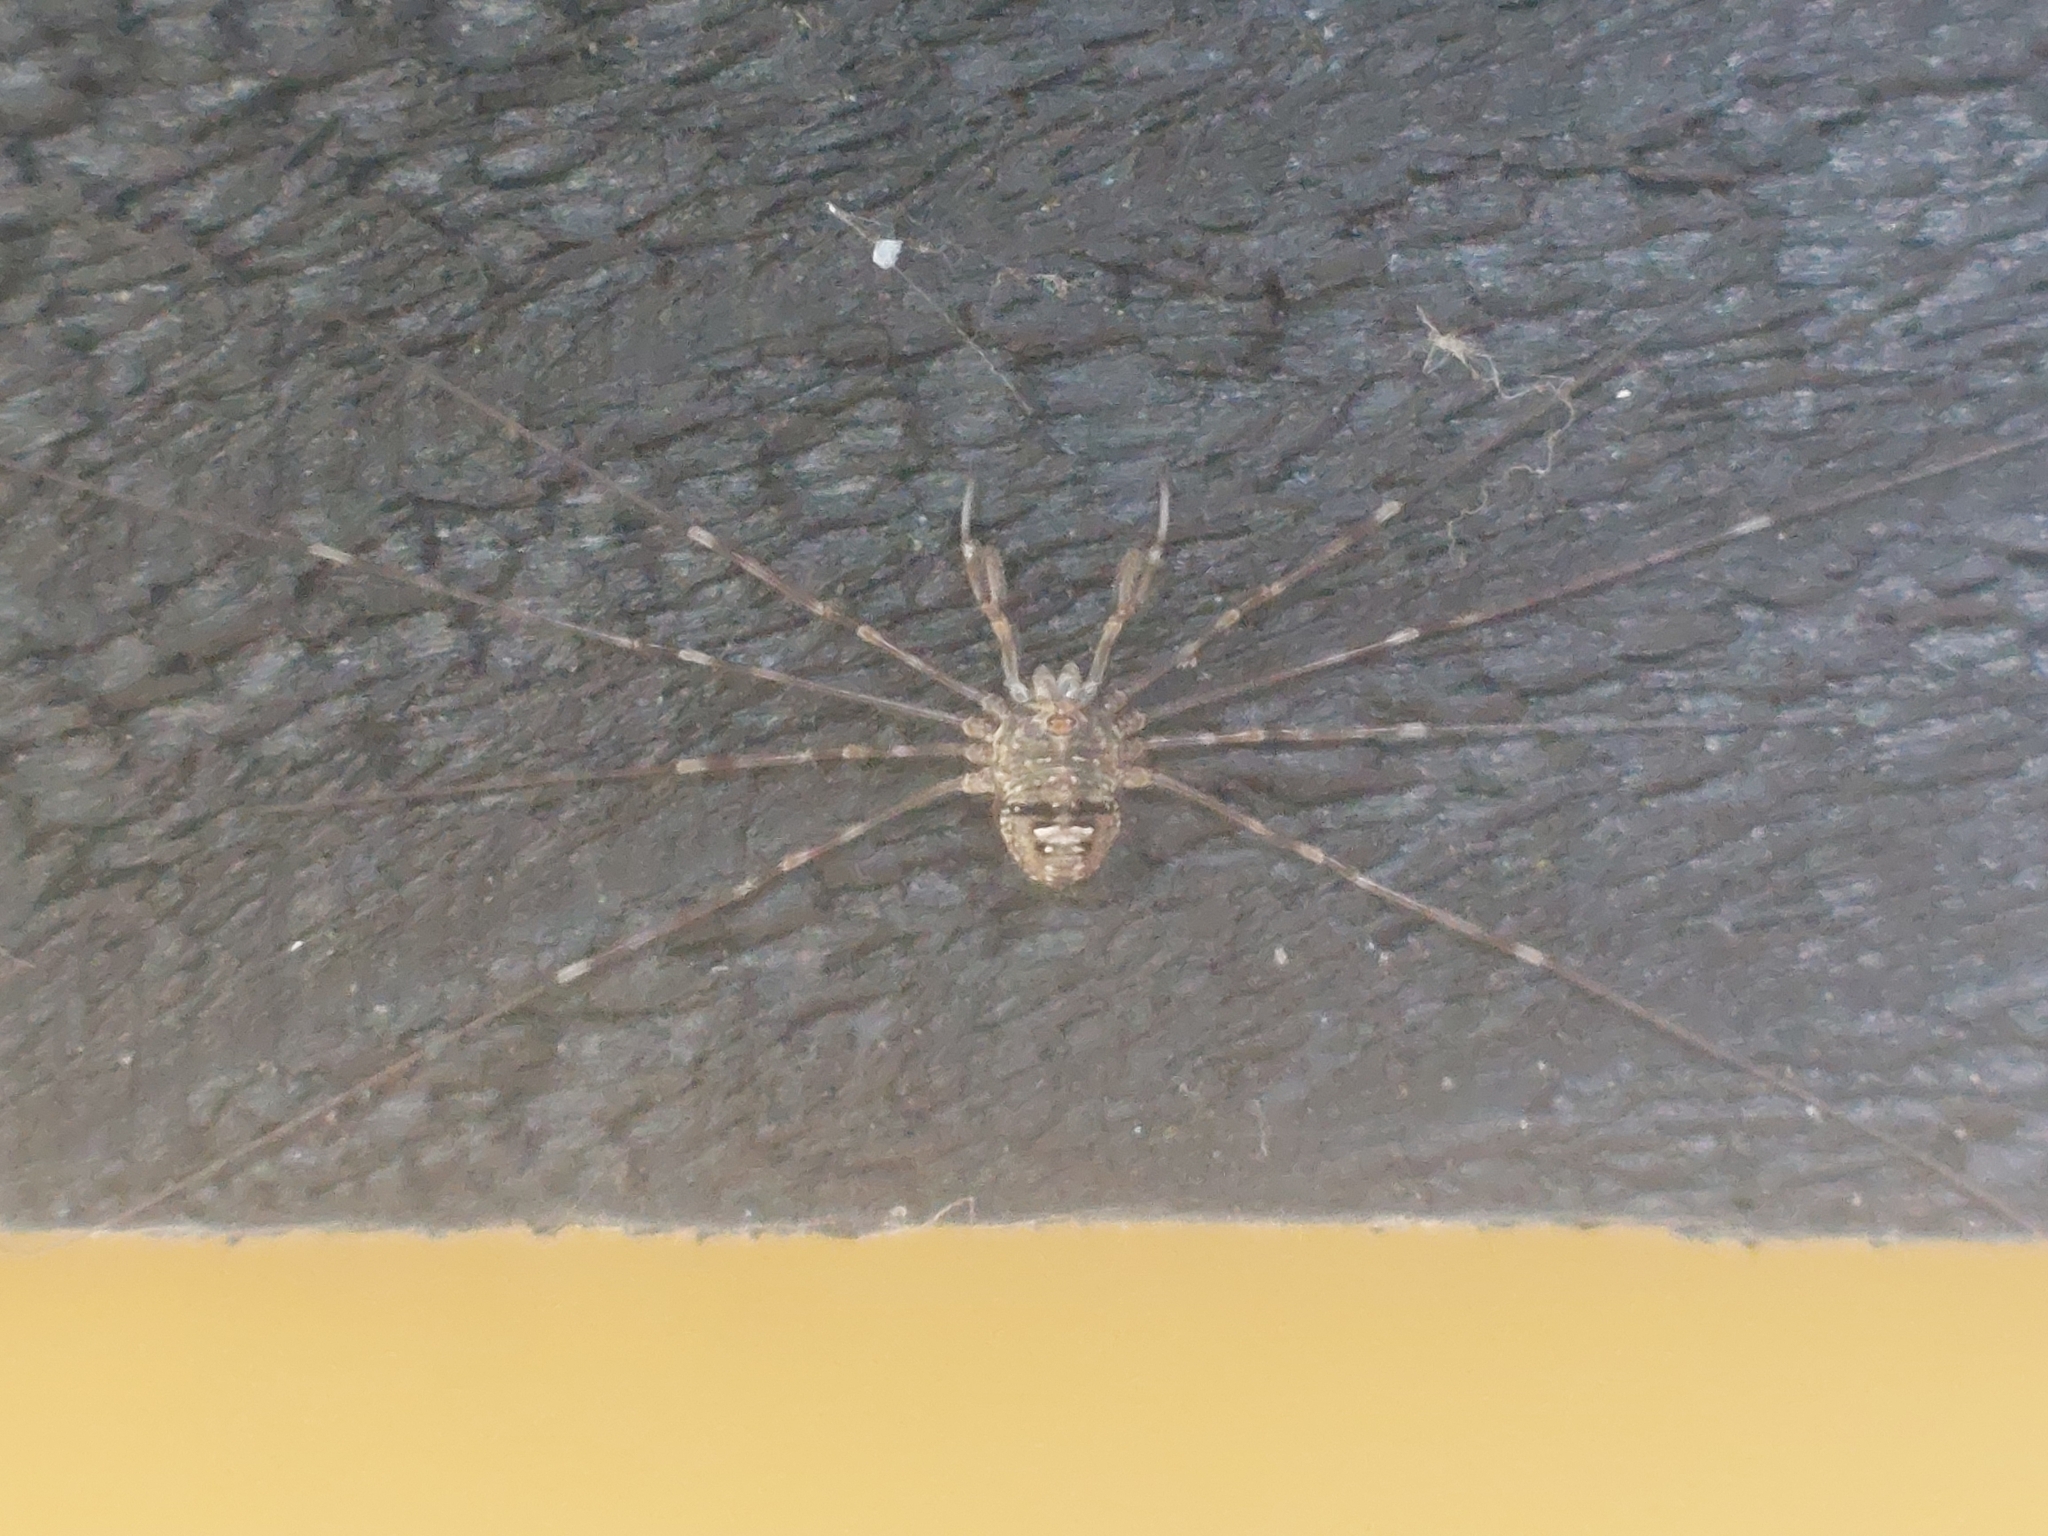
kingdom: Animalia
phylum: Arthropoda
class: Arachnida
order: Opiliones
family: Phalangiidae
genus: Dicranopalpus
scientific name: Dicranopalpus ramosus
